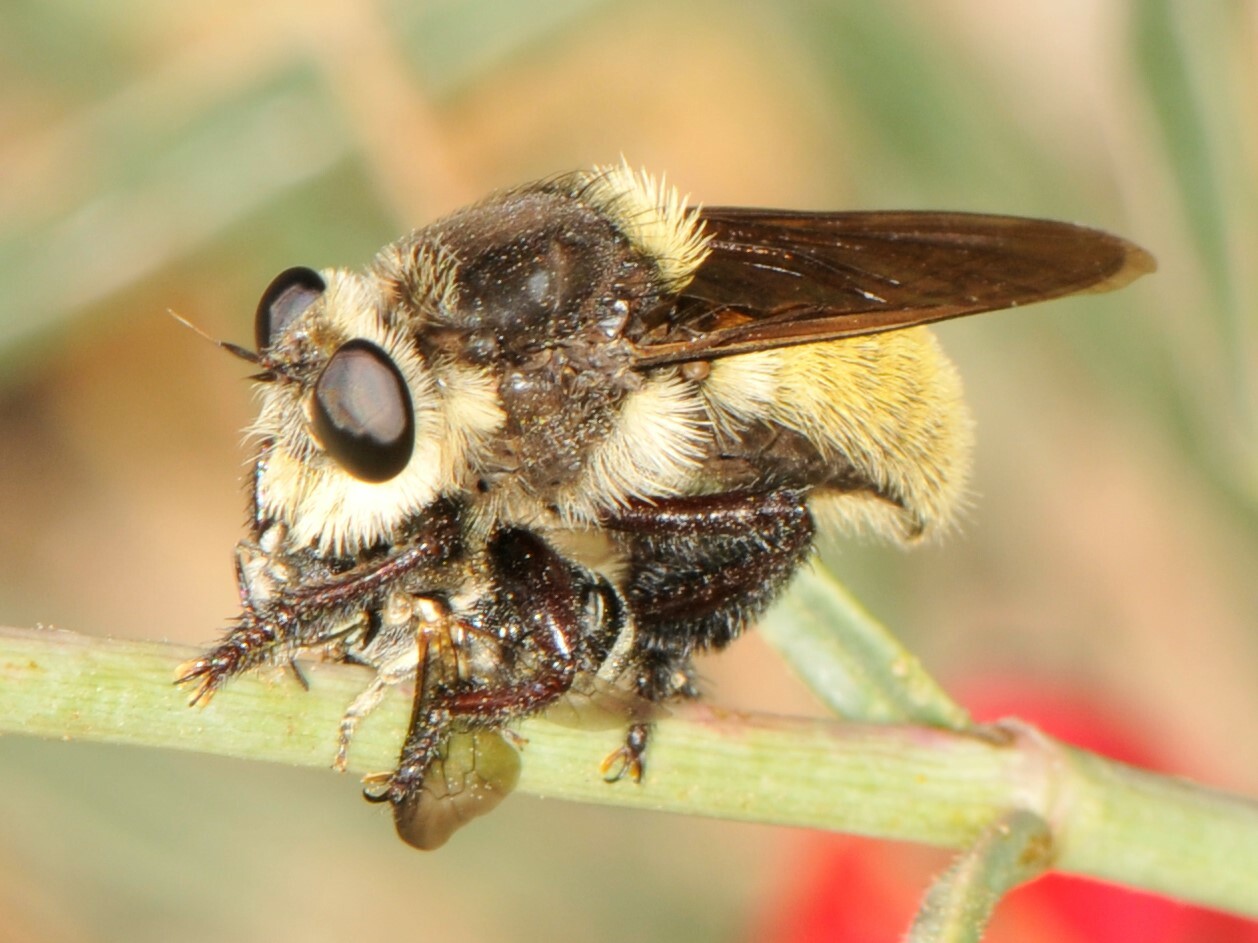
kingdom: Animalia
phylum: Arthropoda
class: Insecta
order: Diptera
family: Asilidae
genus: Mallophora
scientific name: Mallophora fautrix
